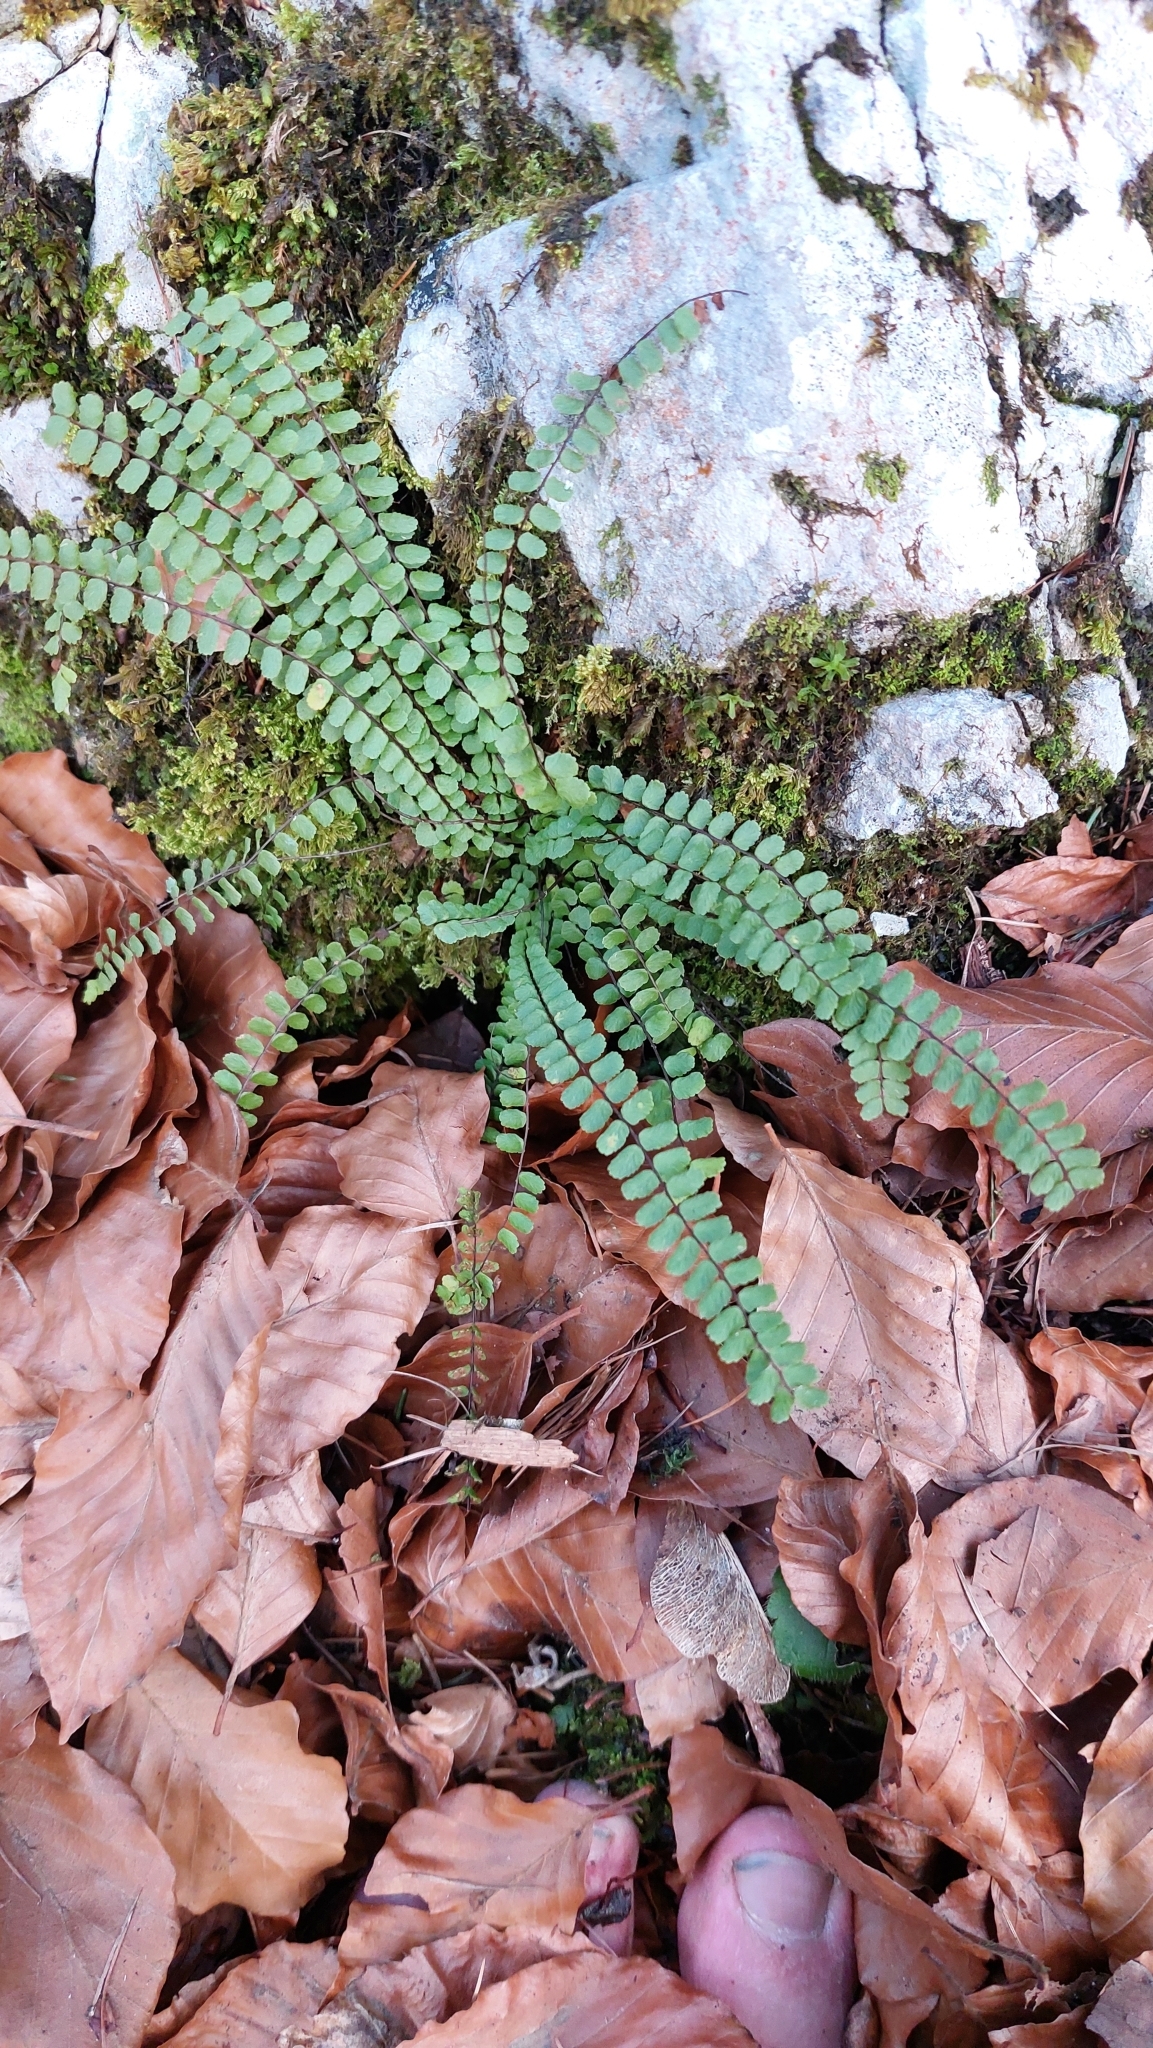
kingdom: Plantae
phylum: Tracheophyta
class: Polypodiopsida
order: Polypodiales
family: Aspleniaceae
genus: Asplenium
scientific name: Asplenium trichomanes
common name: Maidenhair spleenwort
